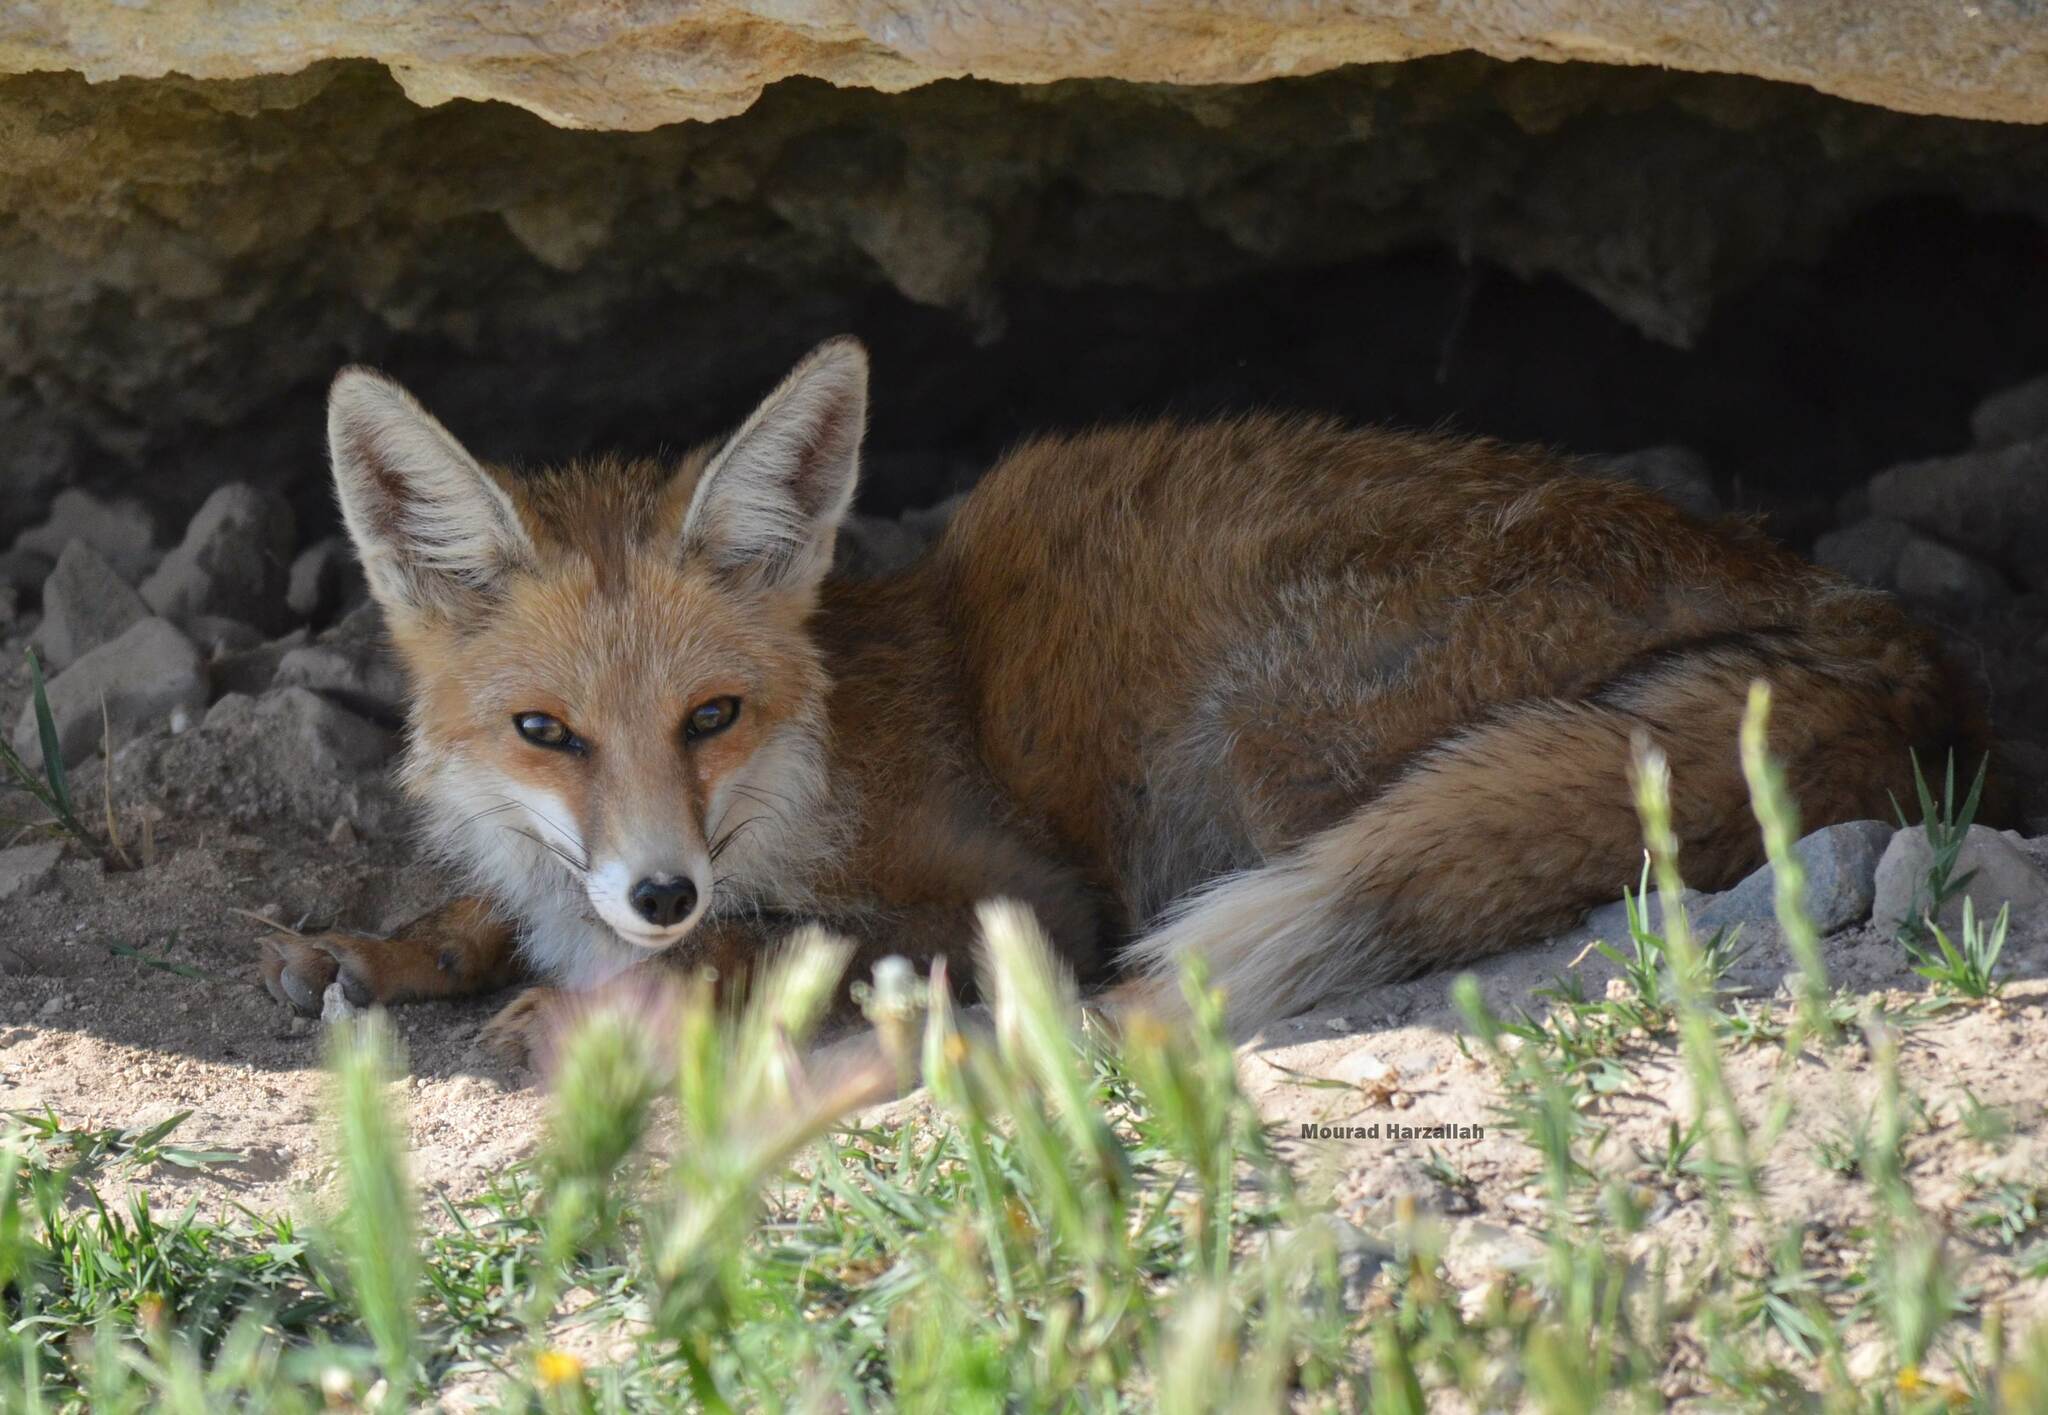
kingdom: Animalia
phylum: Chordata
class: Mammalia
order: Carnivora
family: Canidae
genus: Vulpes
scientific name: Vulpes vulpes
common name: Red fox
